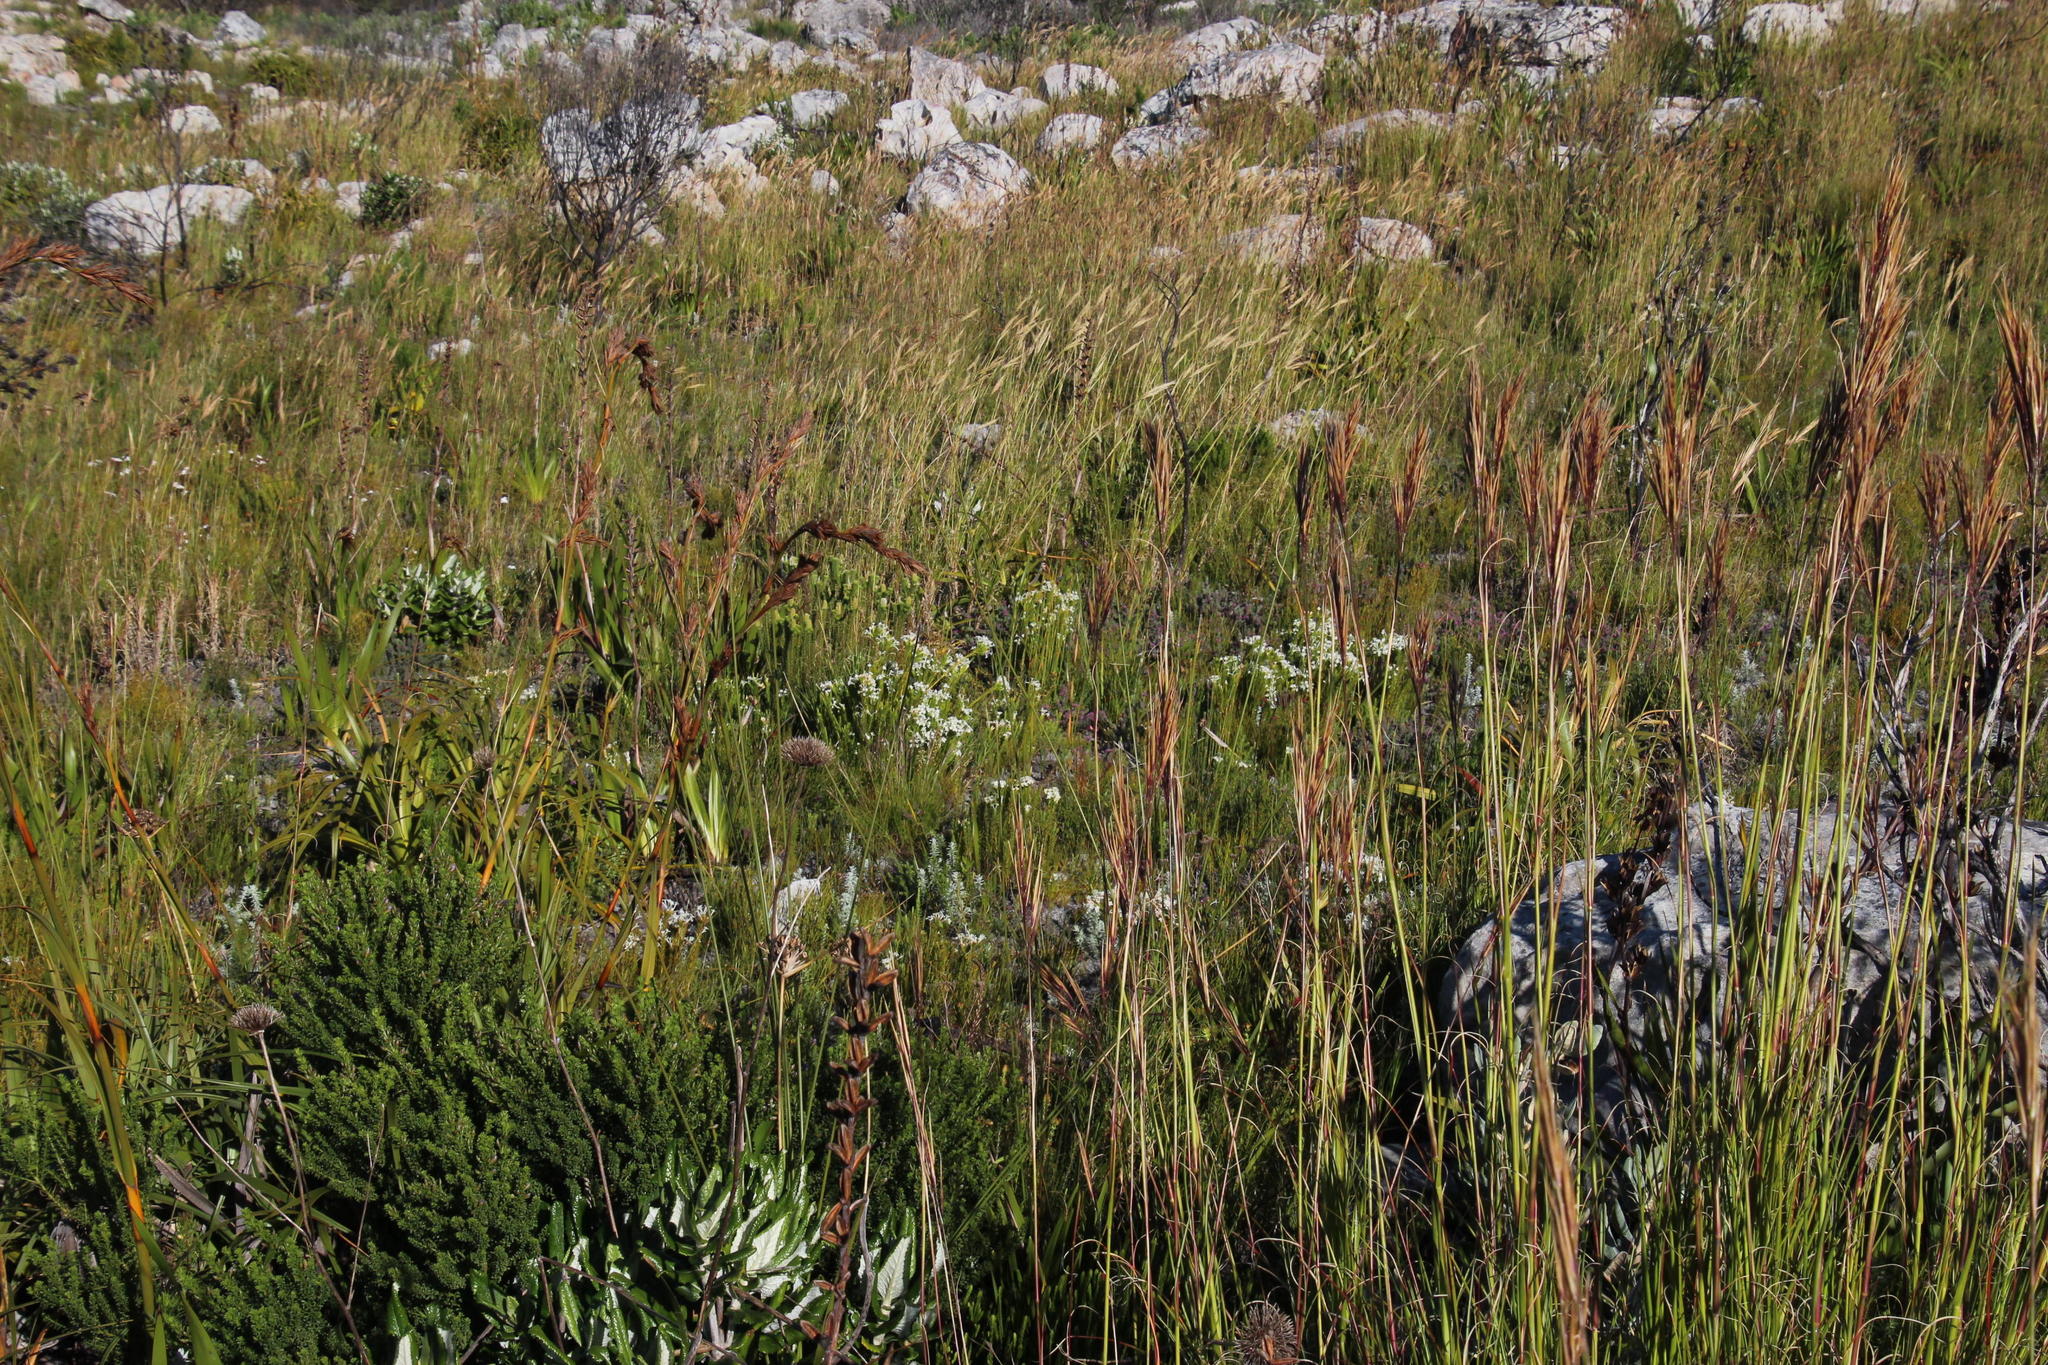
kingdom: Plantae
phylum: Tracheophyta
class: Magnoliopsida
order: Malvales
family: Thymelaeaceae
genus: Gnidia
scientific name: Gnidia pinifolia
